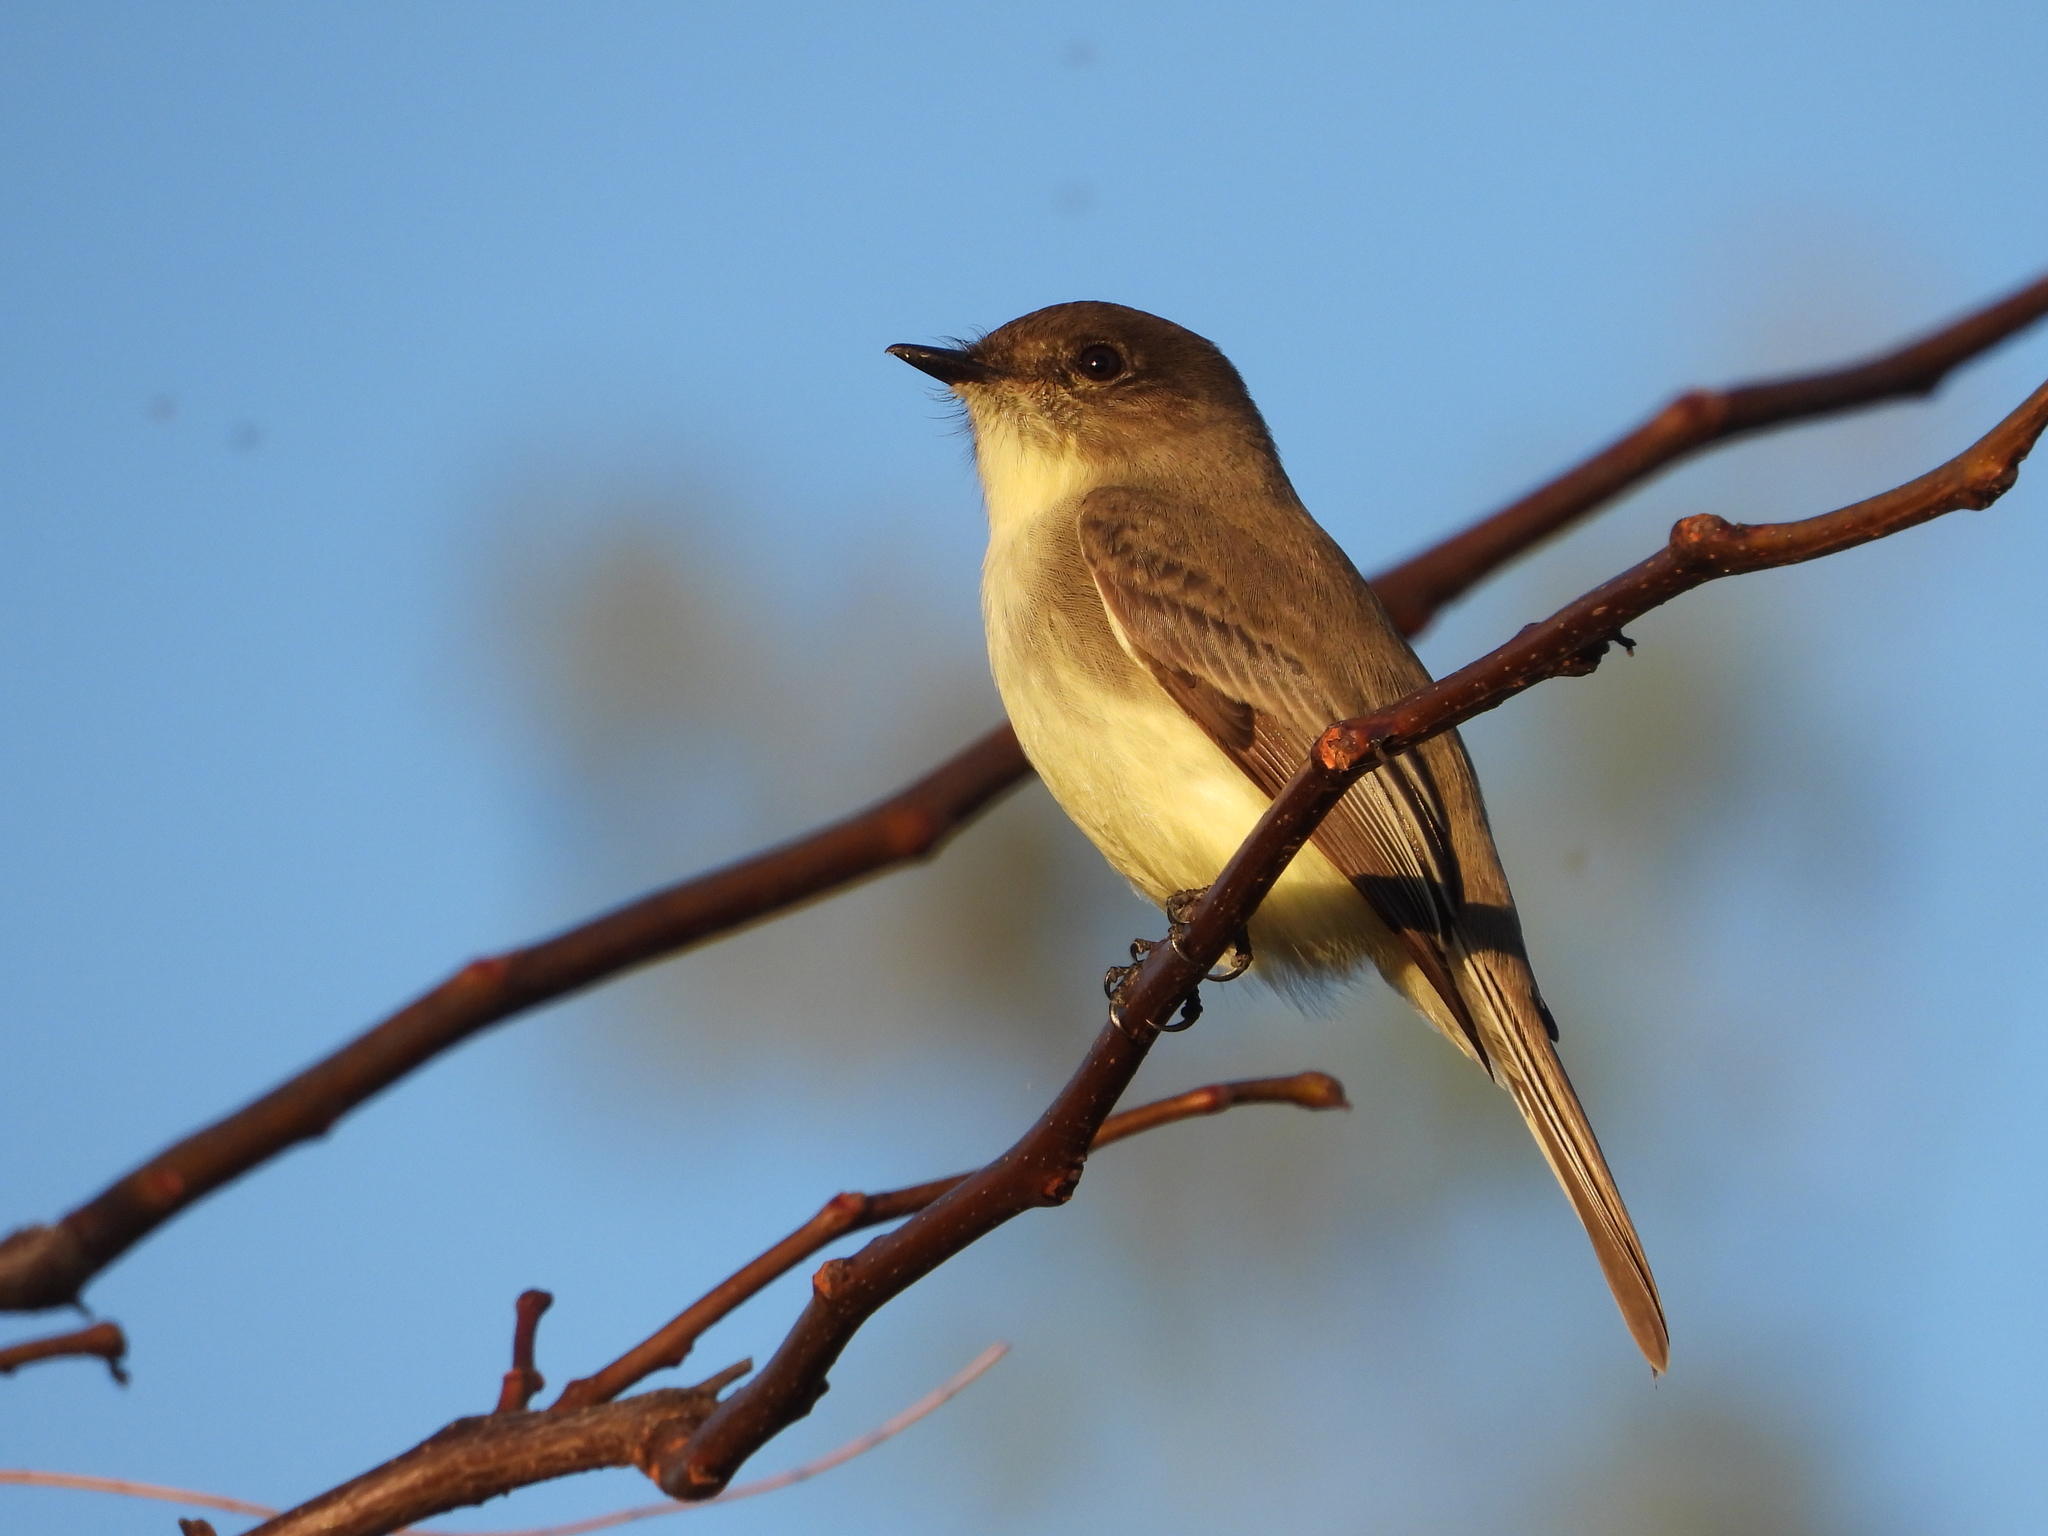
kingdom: Animalia
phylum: Chordata
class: Aves
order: Passeriformes
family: Tyrannidae
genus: Sayornis
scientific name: Sayornis phoebe
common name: Eastern phoebe
